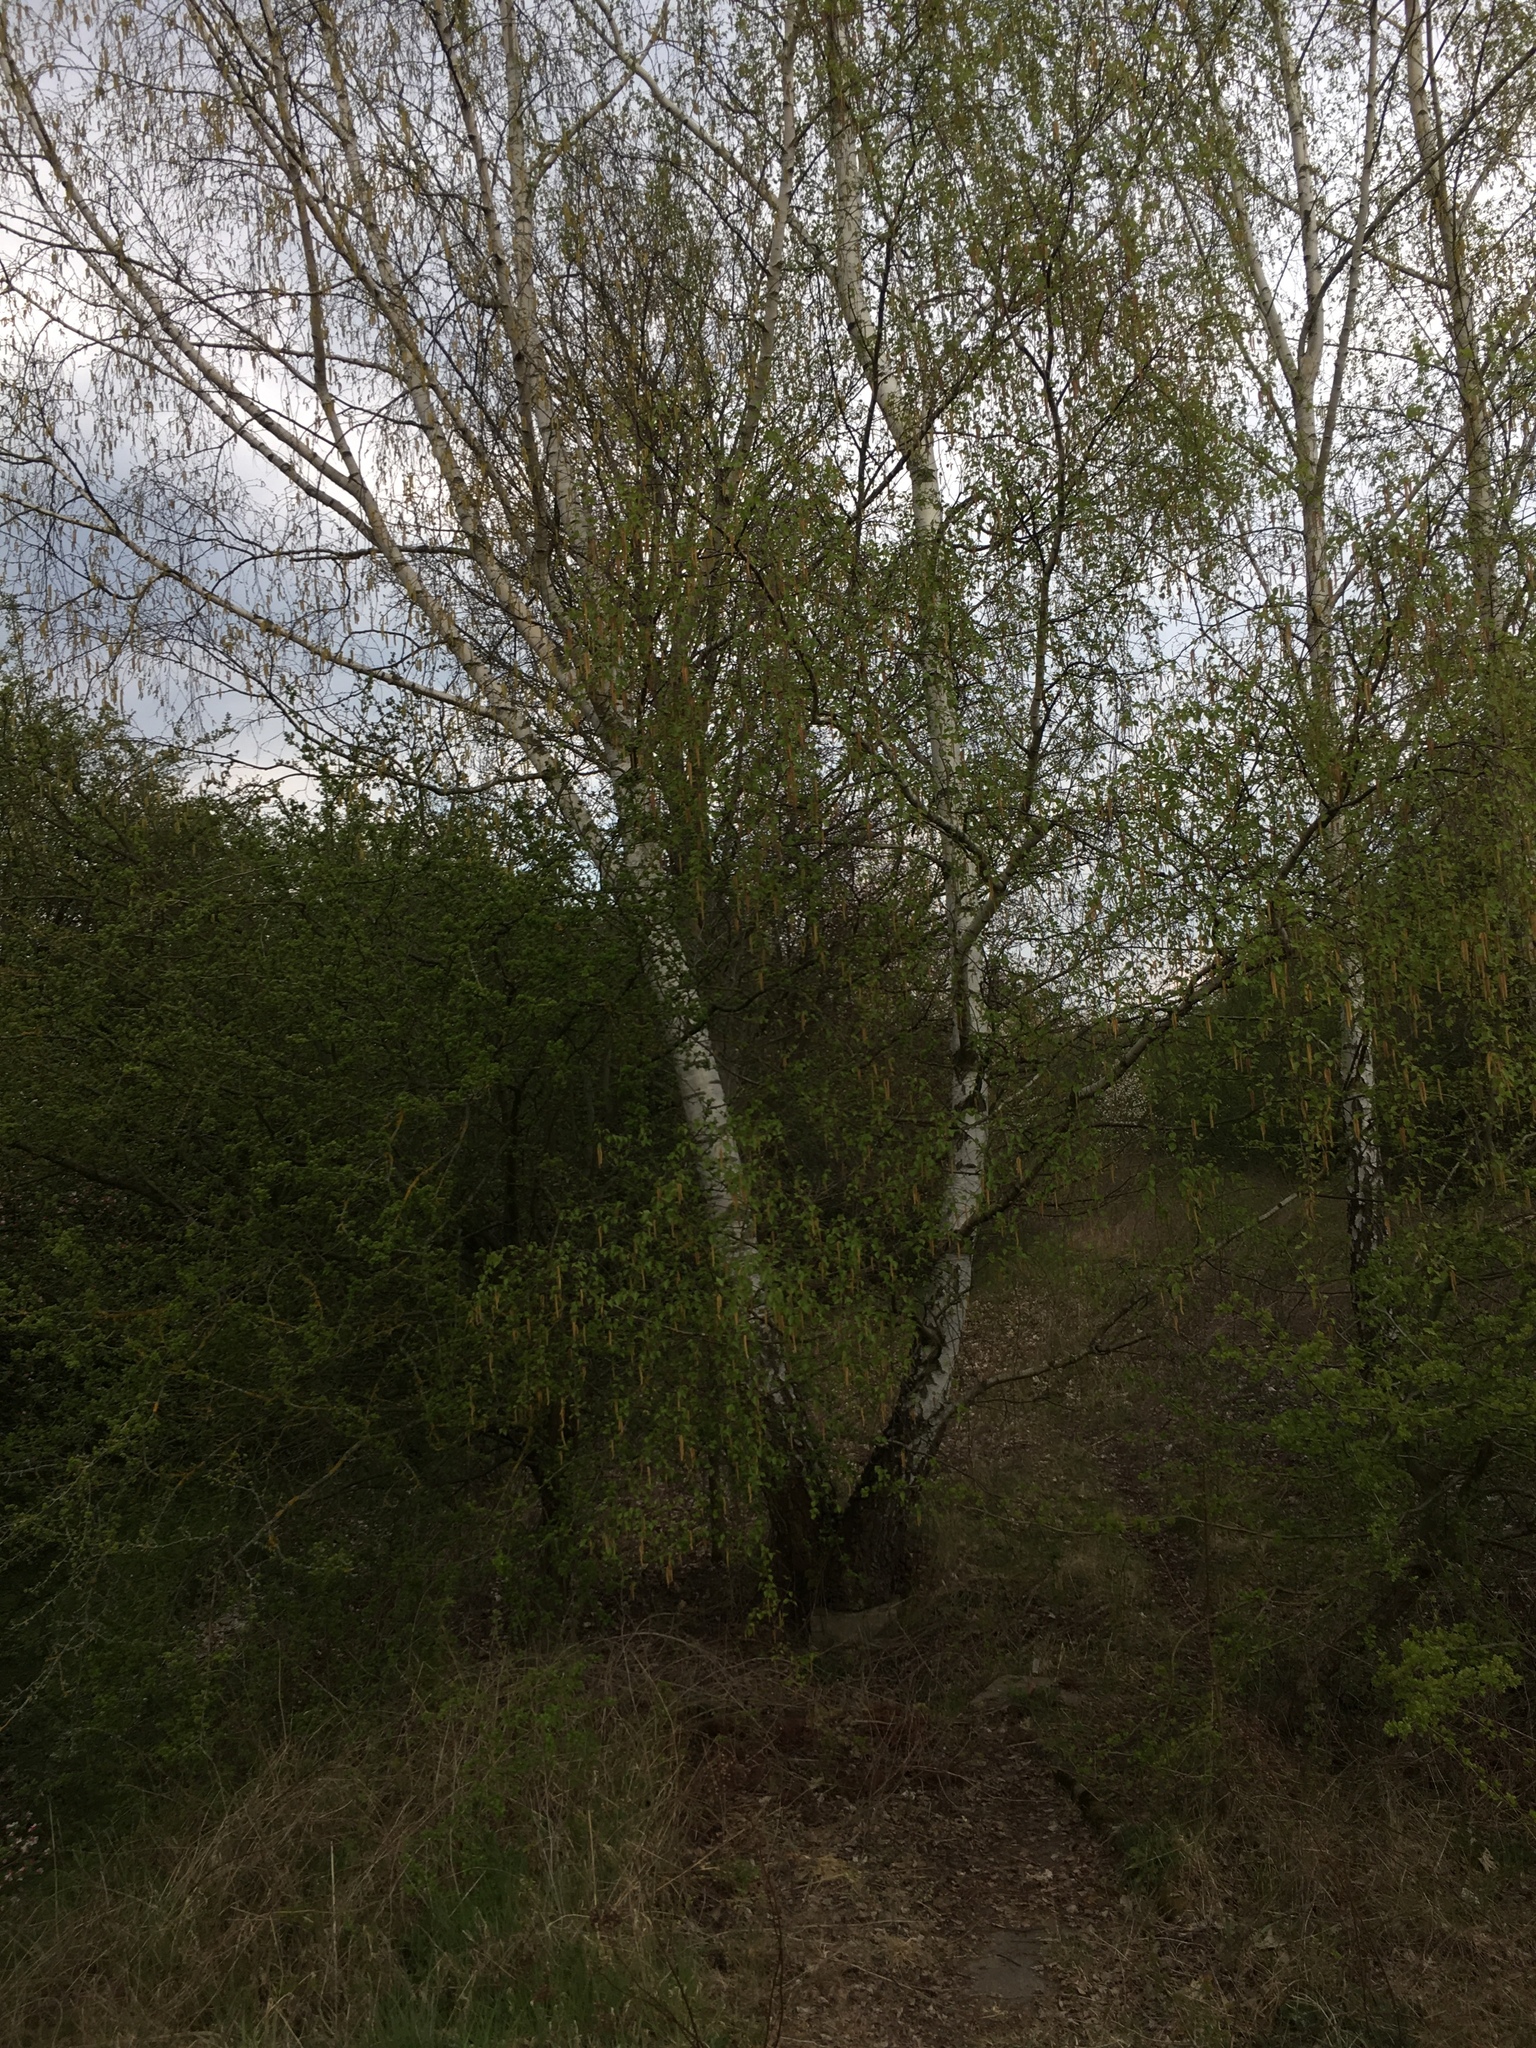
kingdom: Plantae
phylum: Tracheophyta
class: Magnoliopsida
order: Fagales
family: Betulaceae
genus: Betula
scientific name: Betula pendula
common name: Silver birch
